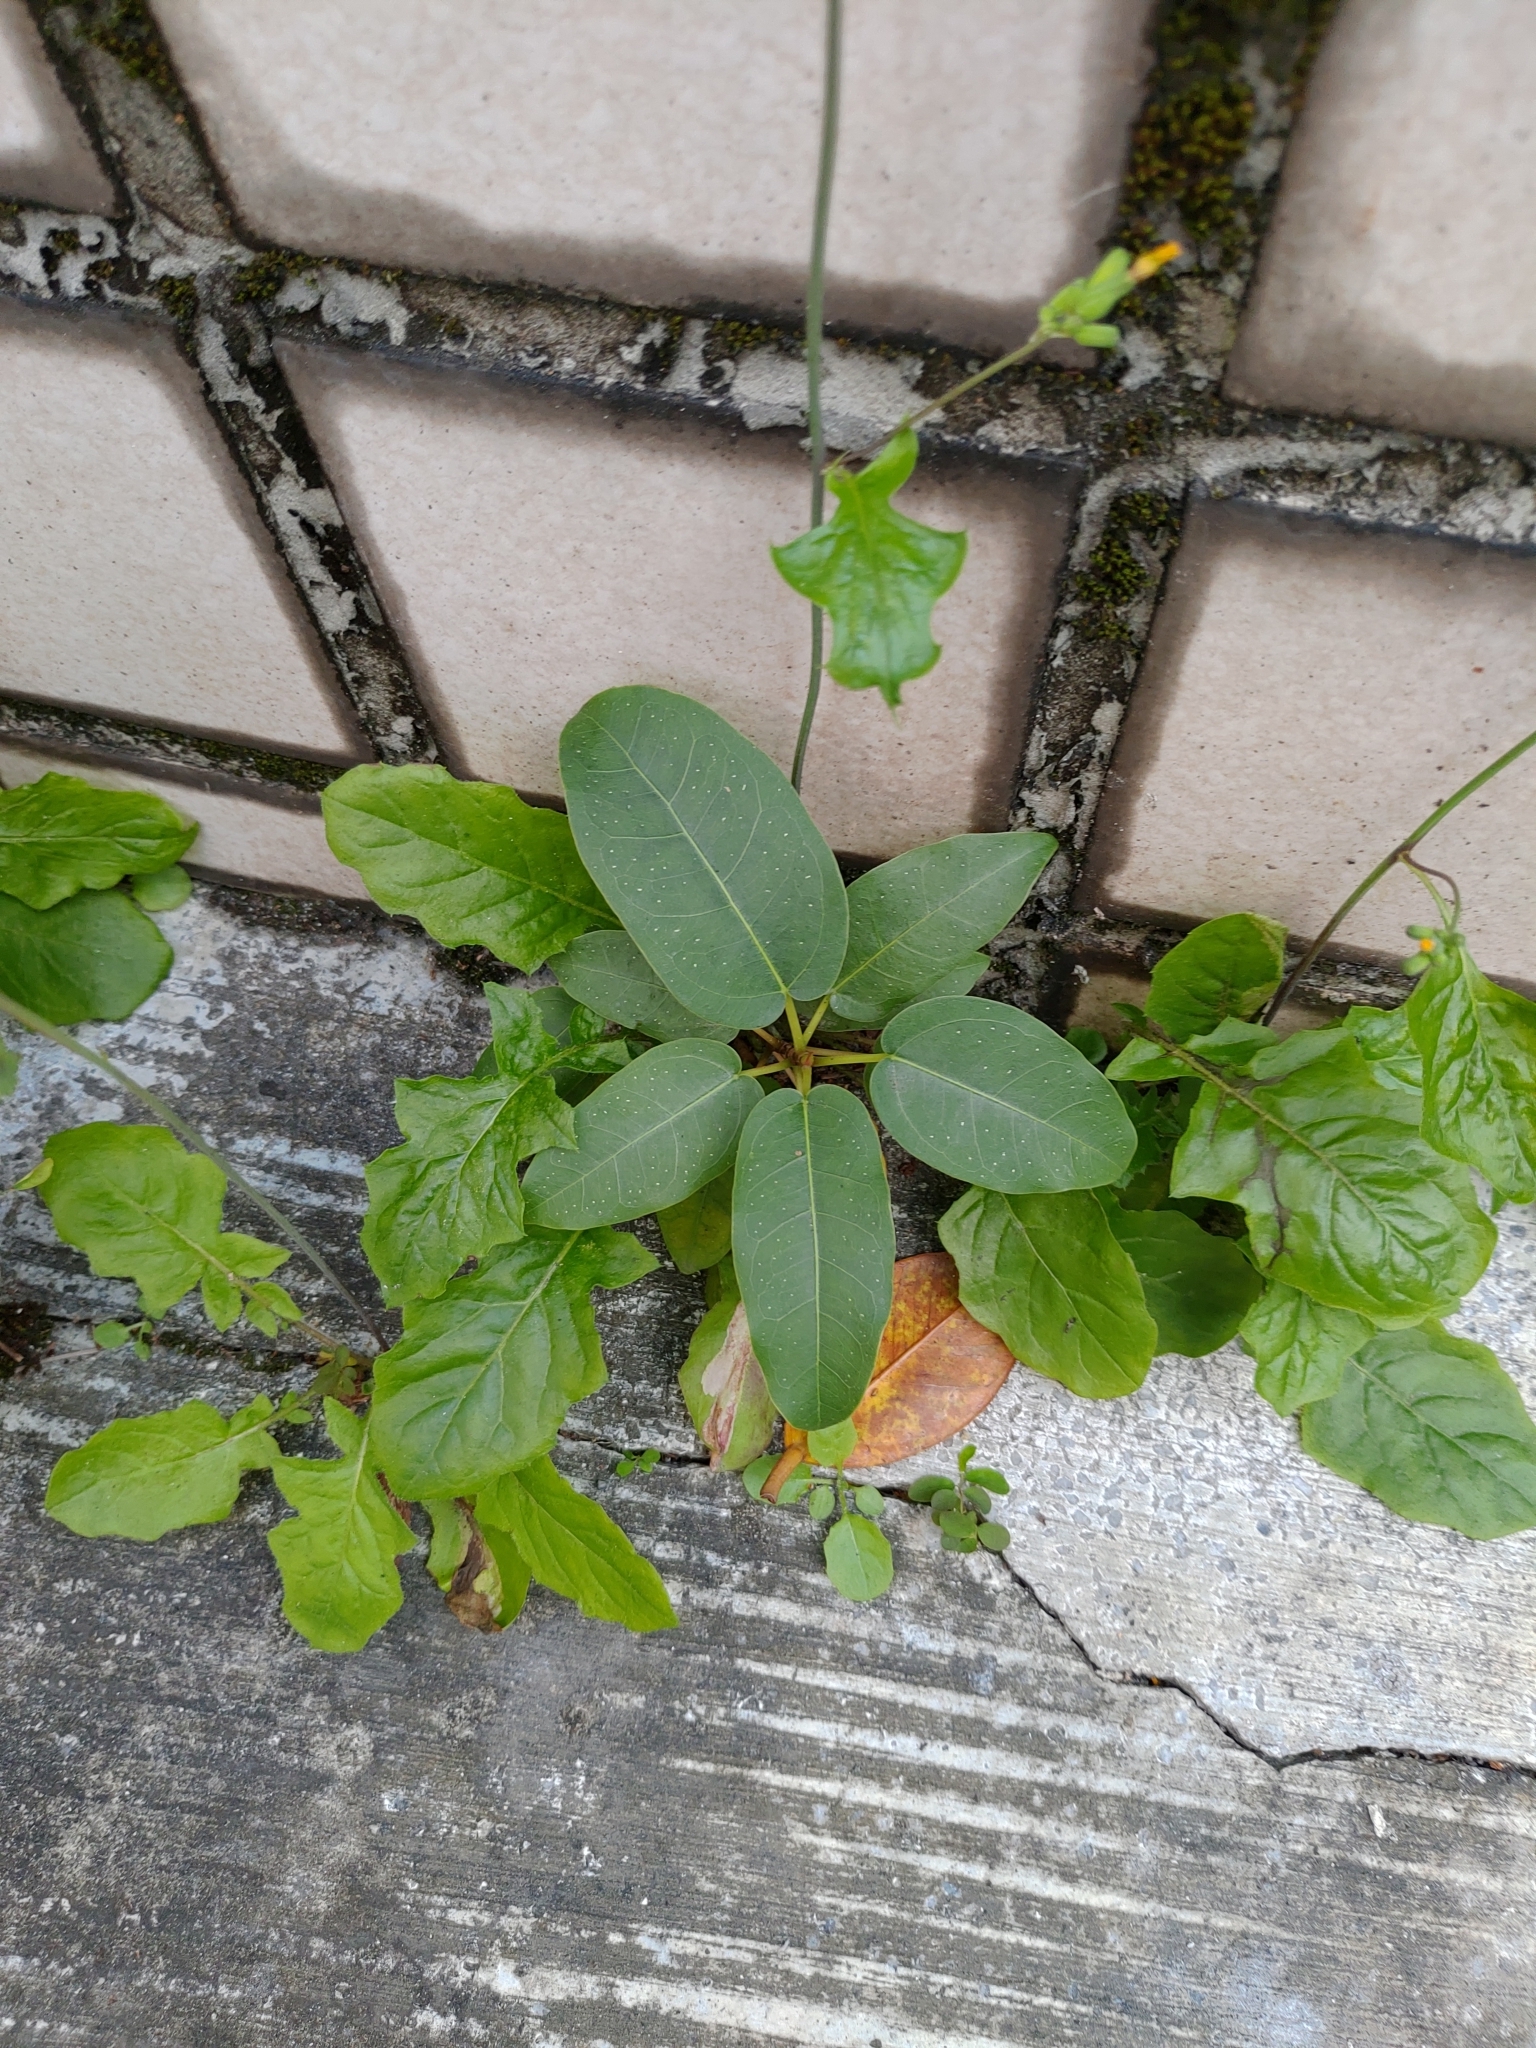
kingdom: Plantae
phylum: Tracheophyta
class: Magnoliopsida
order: Rosales
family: Moraceae
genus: Ficus
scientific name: Ficus subpisocarpa
